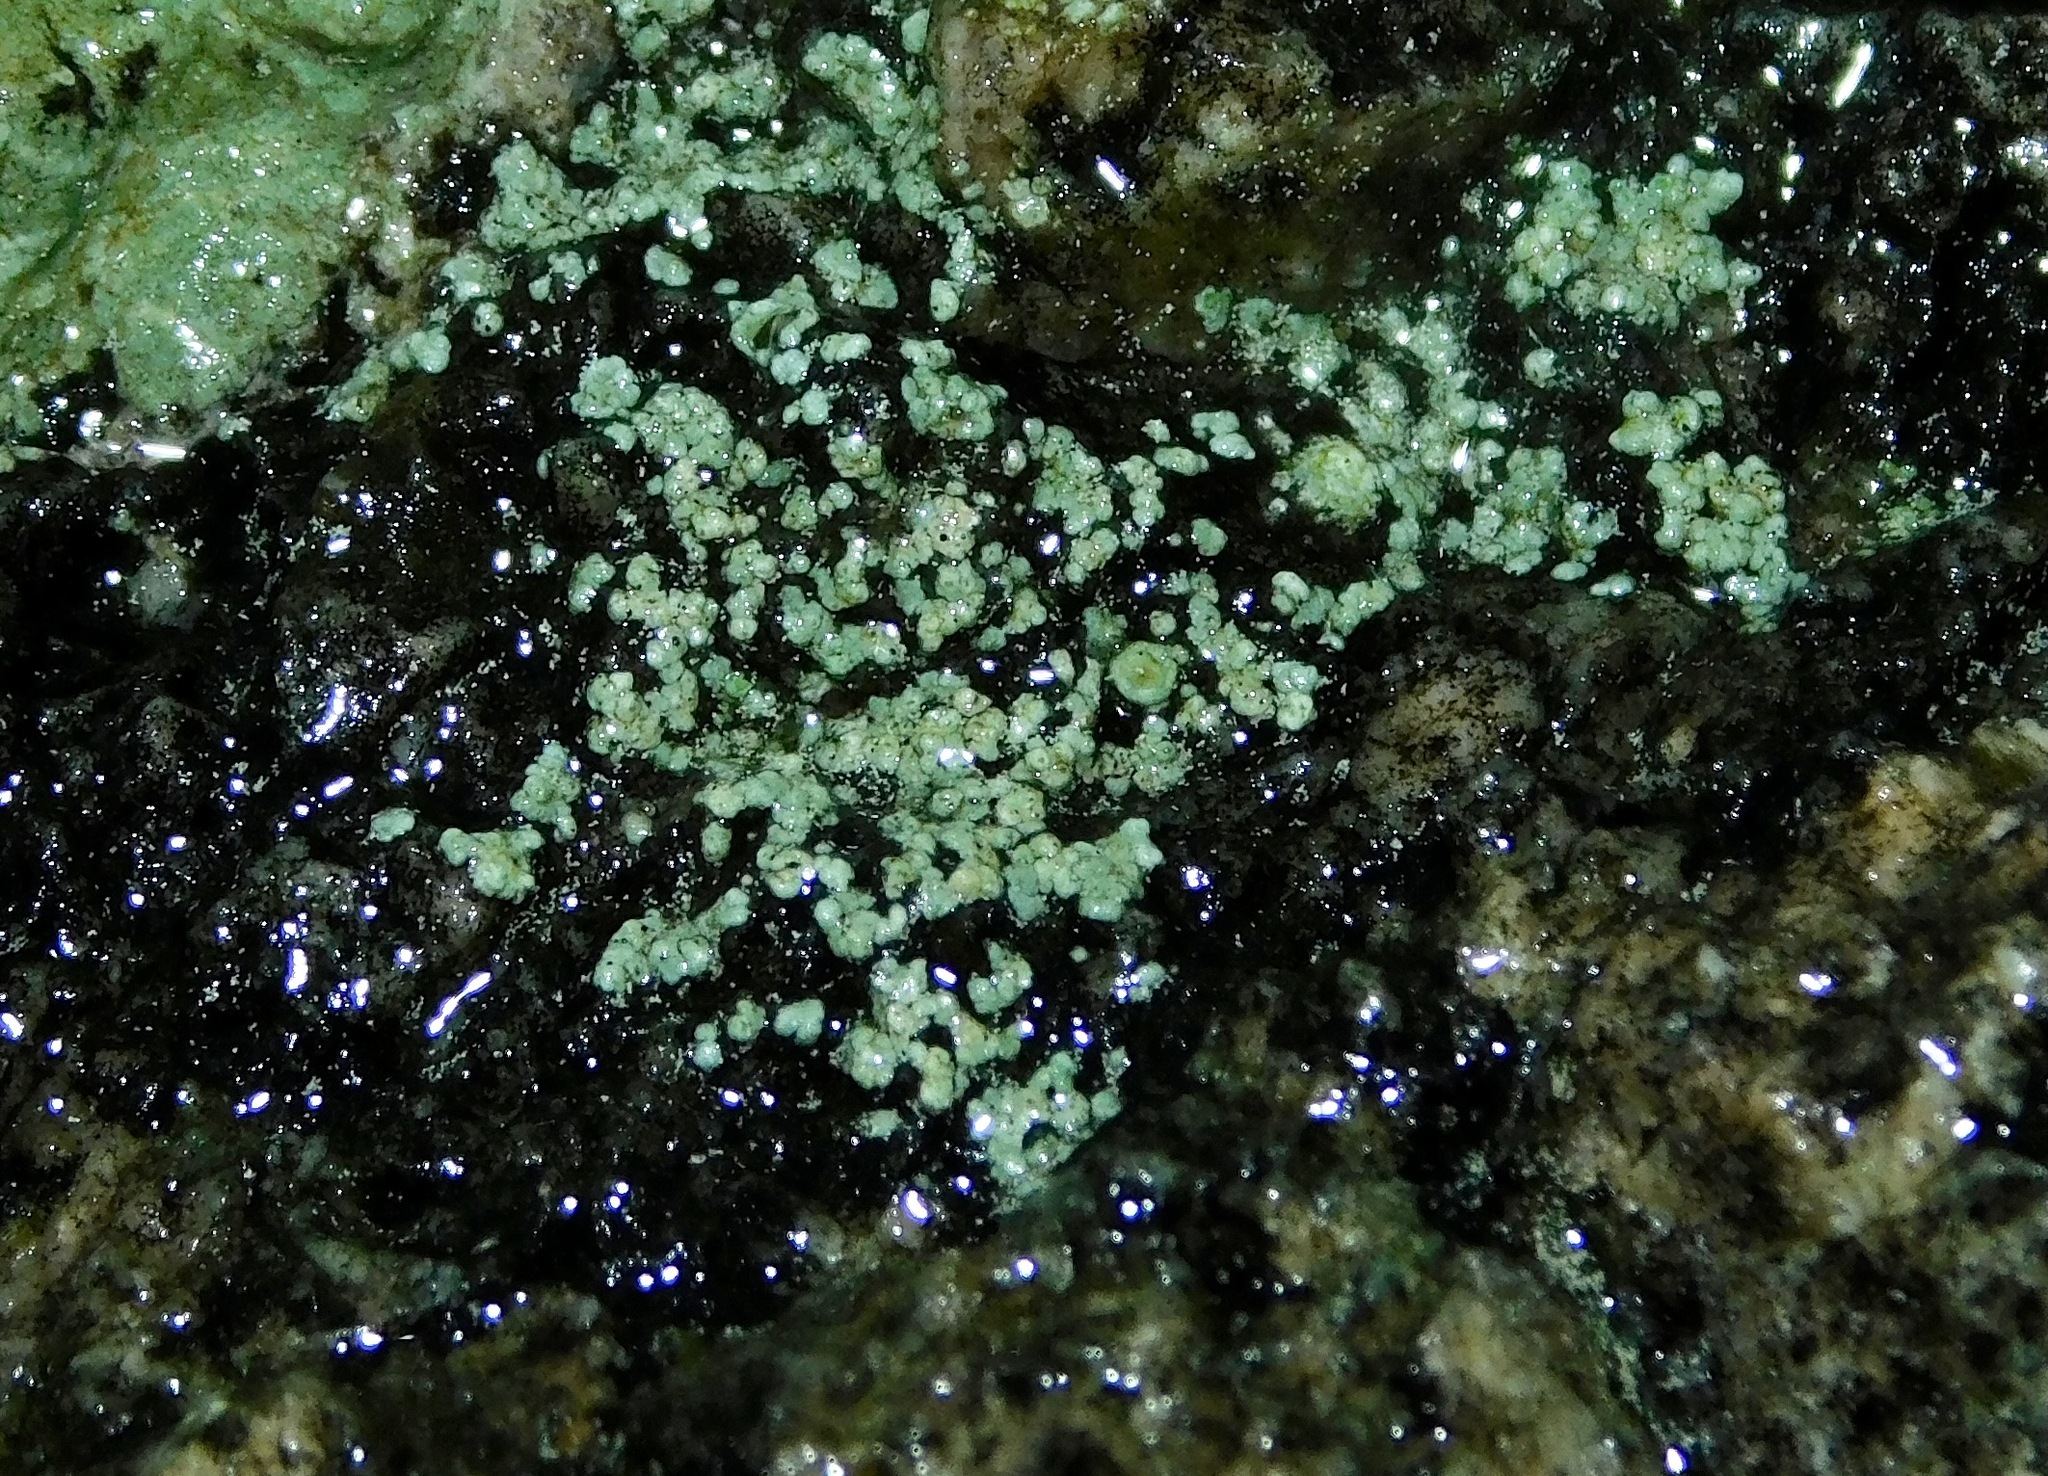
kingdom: Fungi
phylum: Ascomycota
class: Lecanoromycetes
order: Caliciales
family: Physciaceae
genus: Rinodina
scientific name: Rinodina tephraspis
